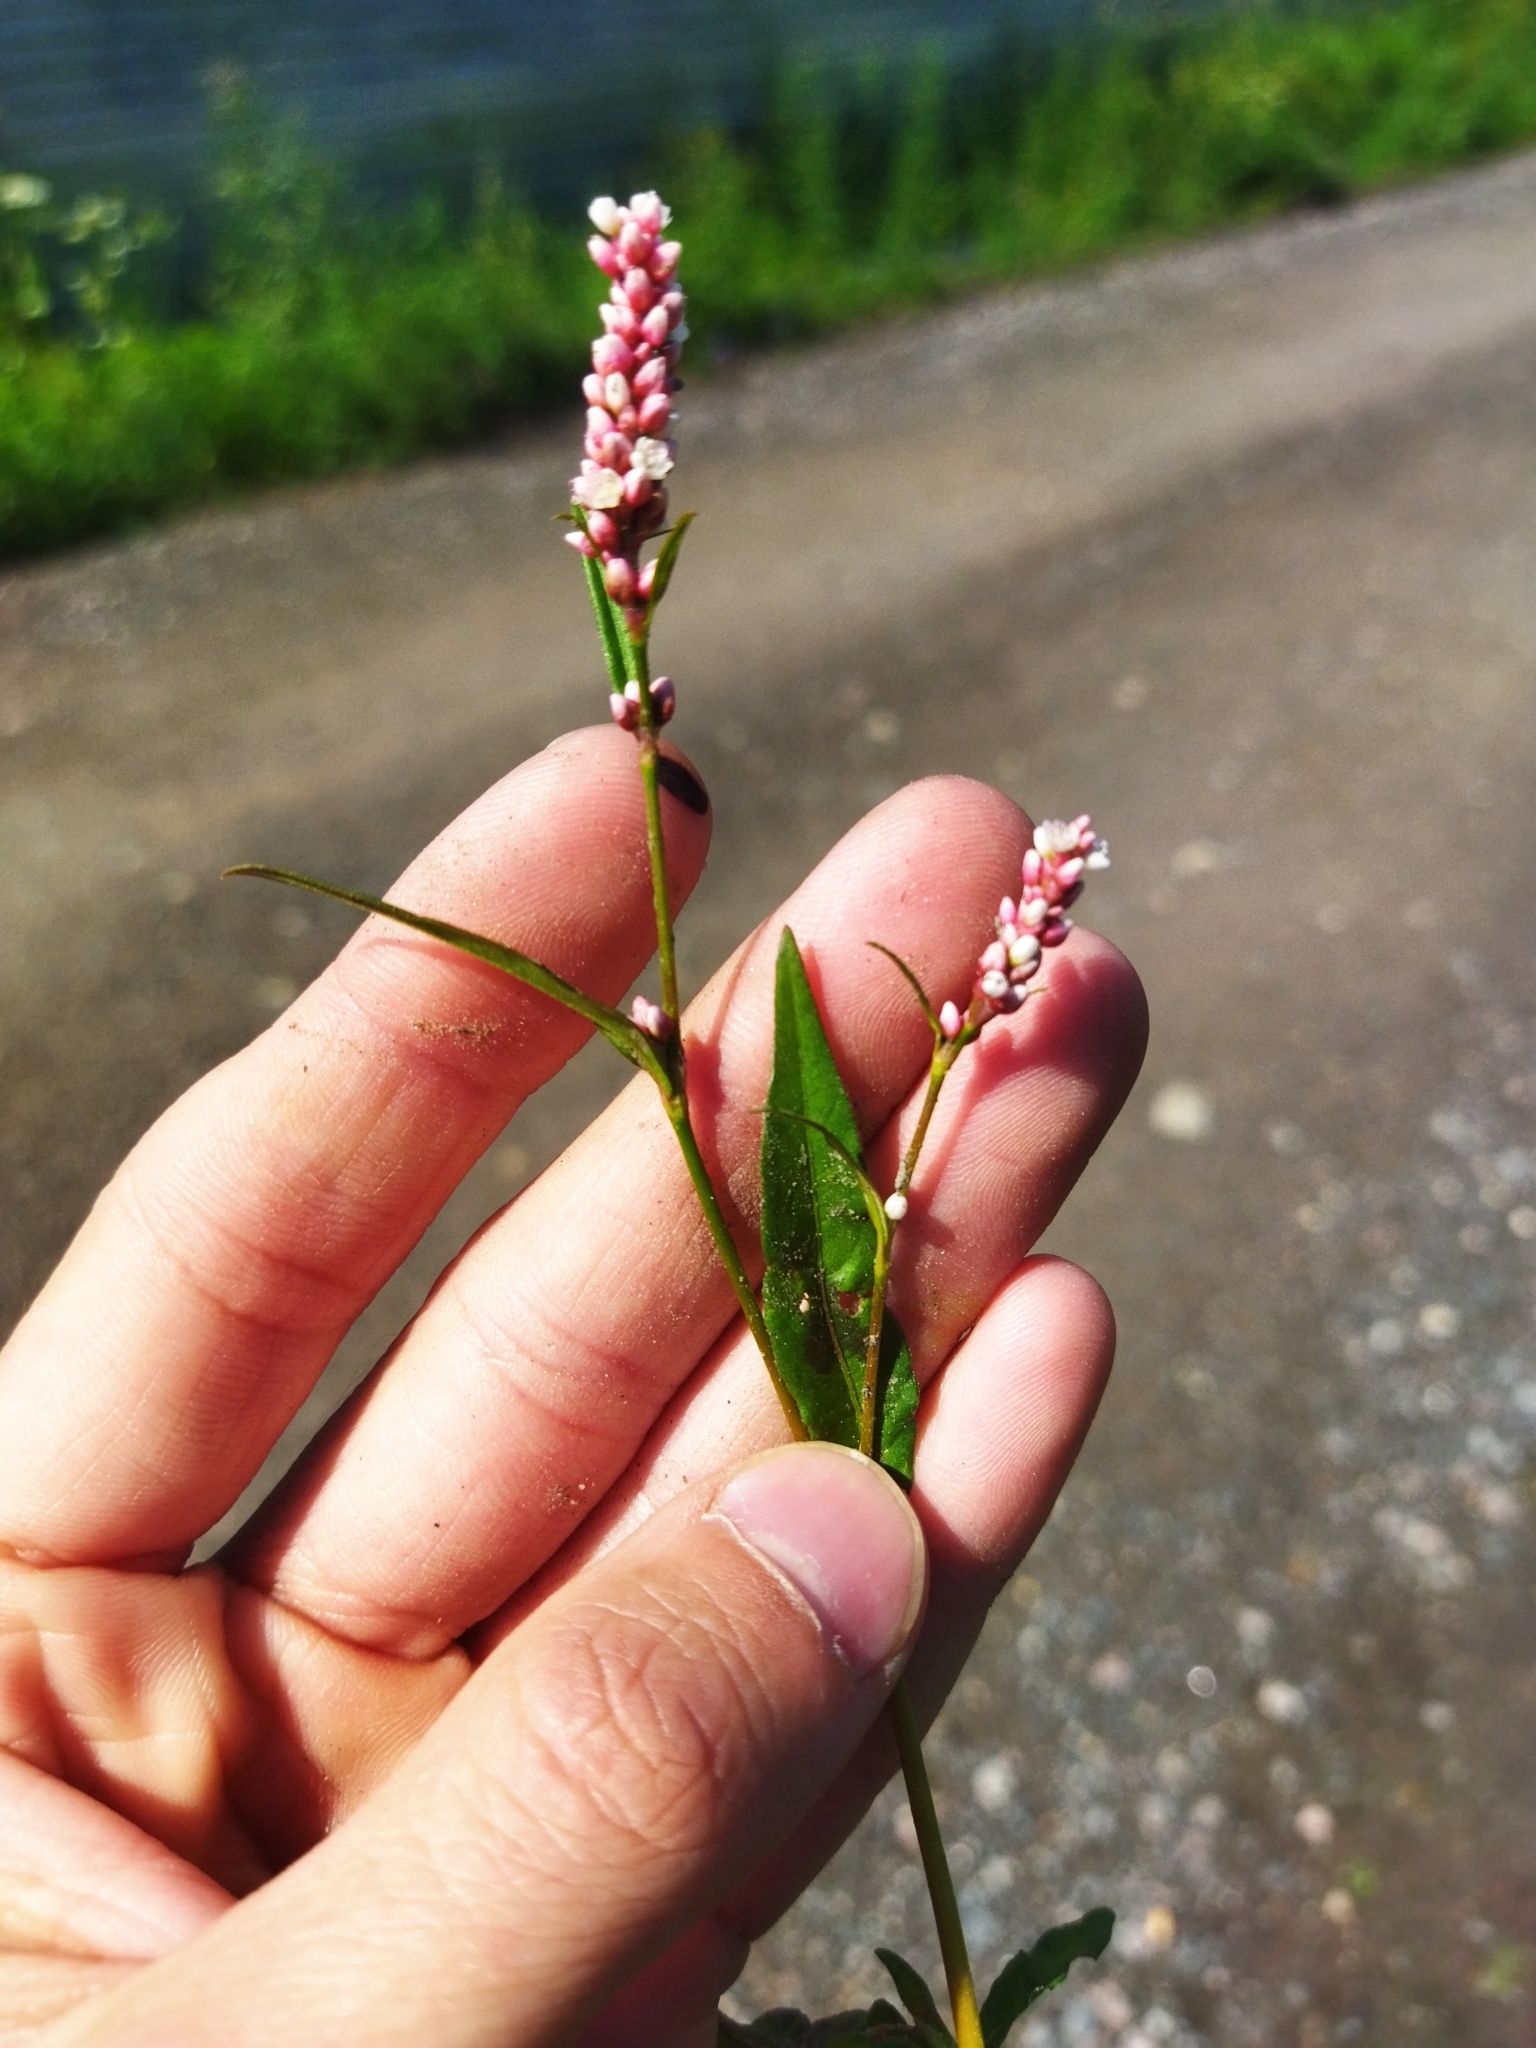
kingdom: Plantae
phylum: Tracheophyta
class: Magnoliopsida
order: Caryophyllales
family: Polygonaceae
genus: Persicaria
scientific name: Persicaria minor
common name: Small water-pepper
